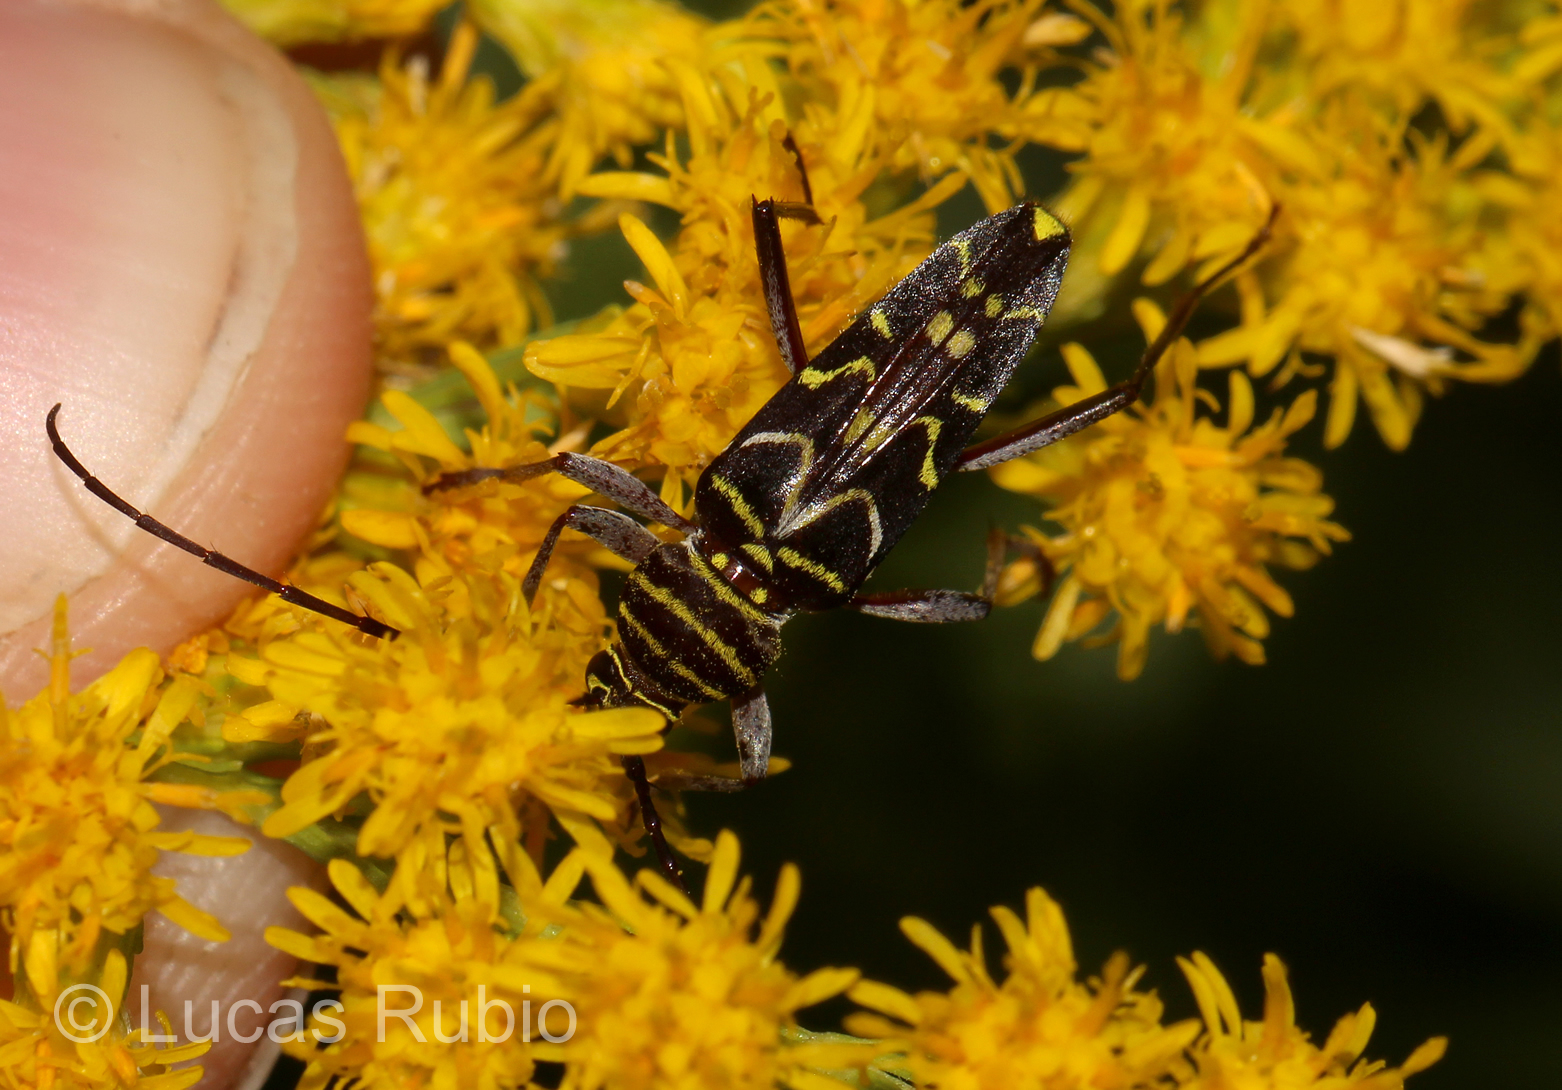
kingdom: Animalia
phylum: Arthropoda
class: Insecta
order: Coleoptera
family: Cerambycidae
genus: Megacyllene
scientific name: Megacyllene acuta
